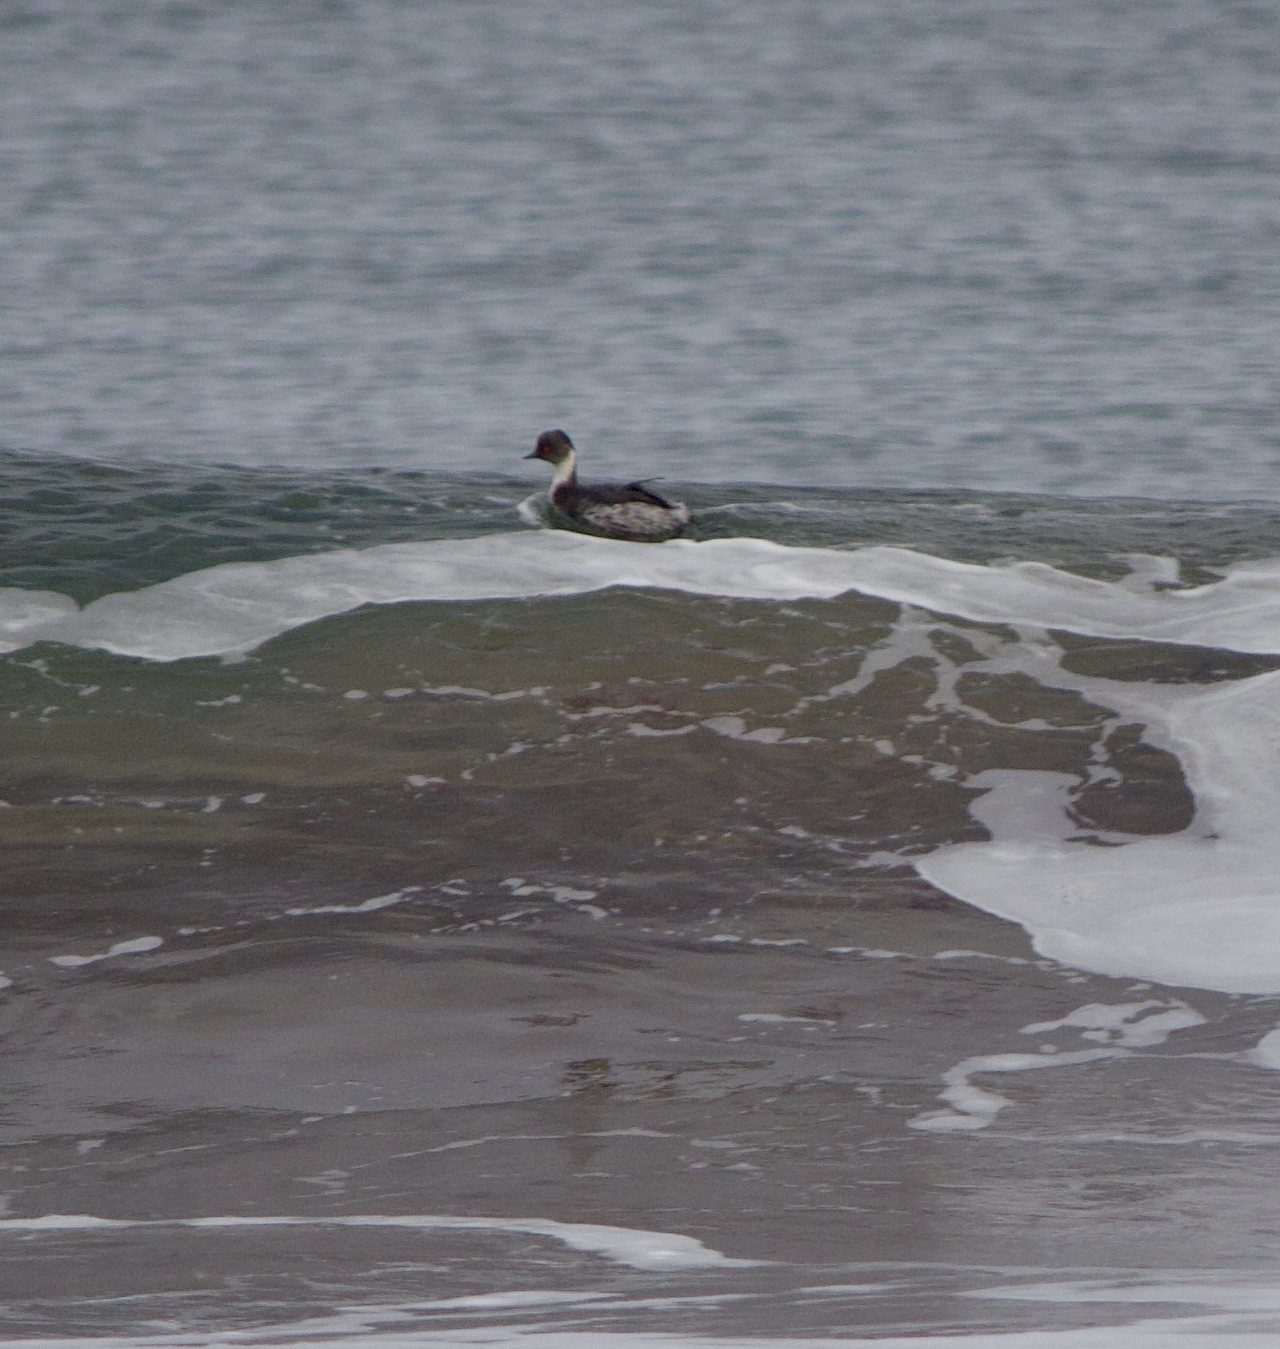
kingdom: Animalia
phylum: Chordata
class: Aves
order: Podicipediformes
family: Podicipedidae
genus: Podiceps
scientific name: Podiceps occipitalis
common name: Silvery grebe
